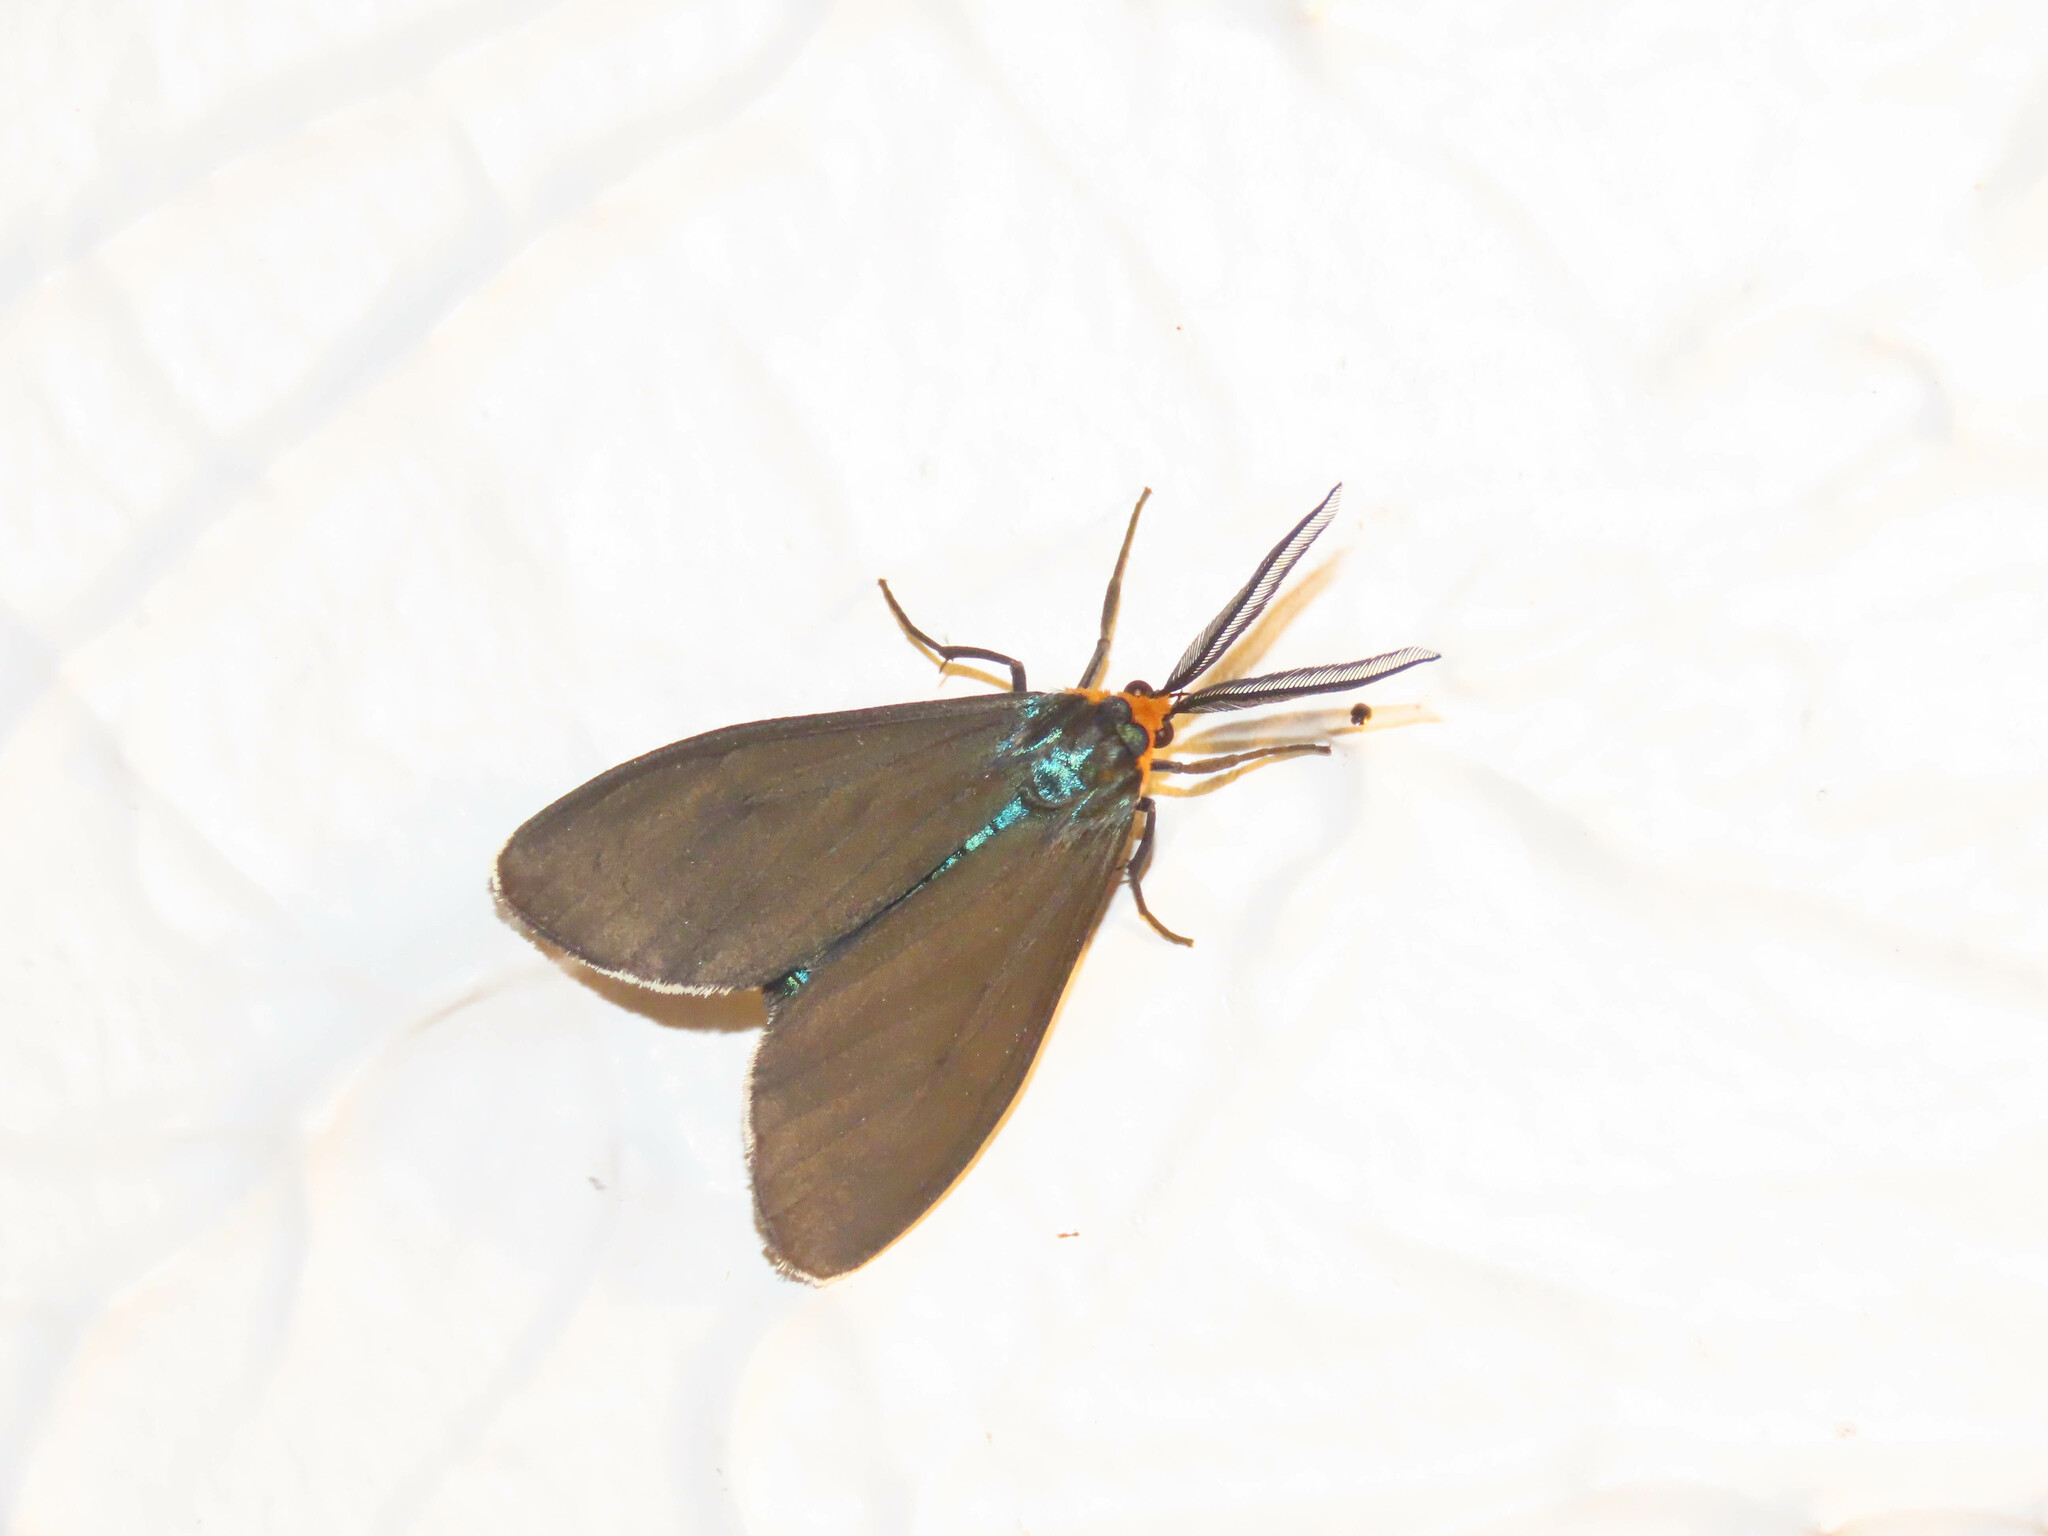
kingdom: Animalia
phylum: Arthropoda
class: Insecta
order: Lepidoptera
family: Erebidae
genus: Ctenucha
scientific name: Ctenucha virginica
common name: Virginia ctenucha moth
